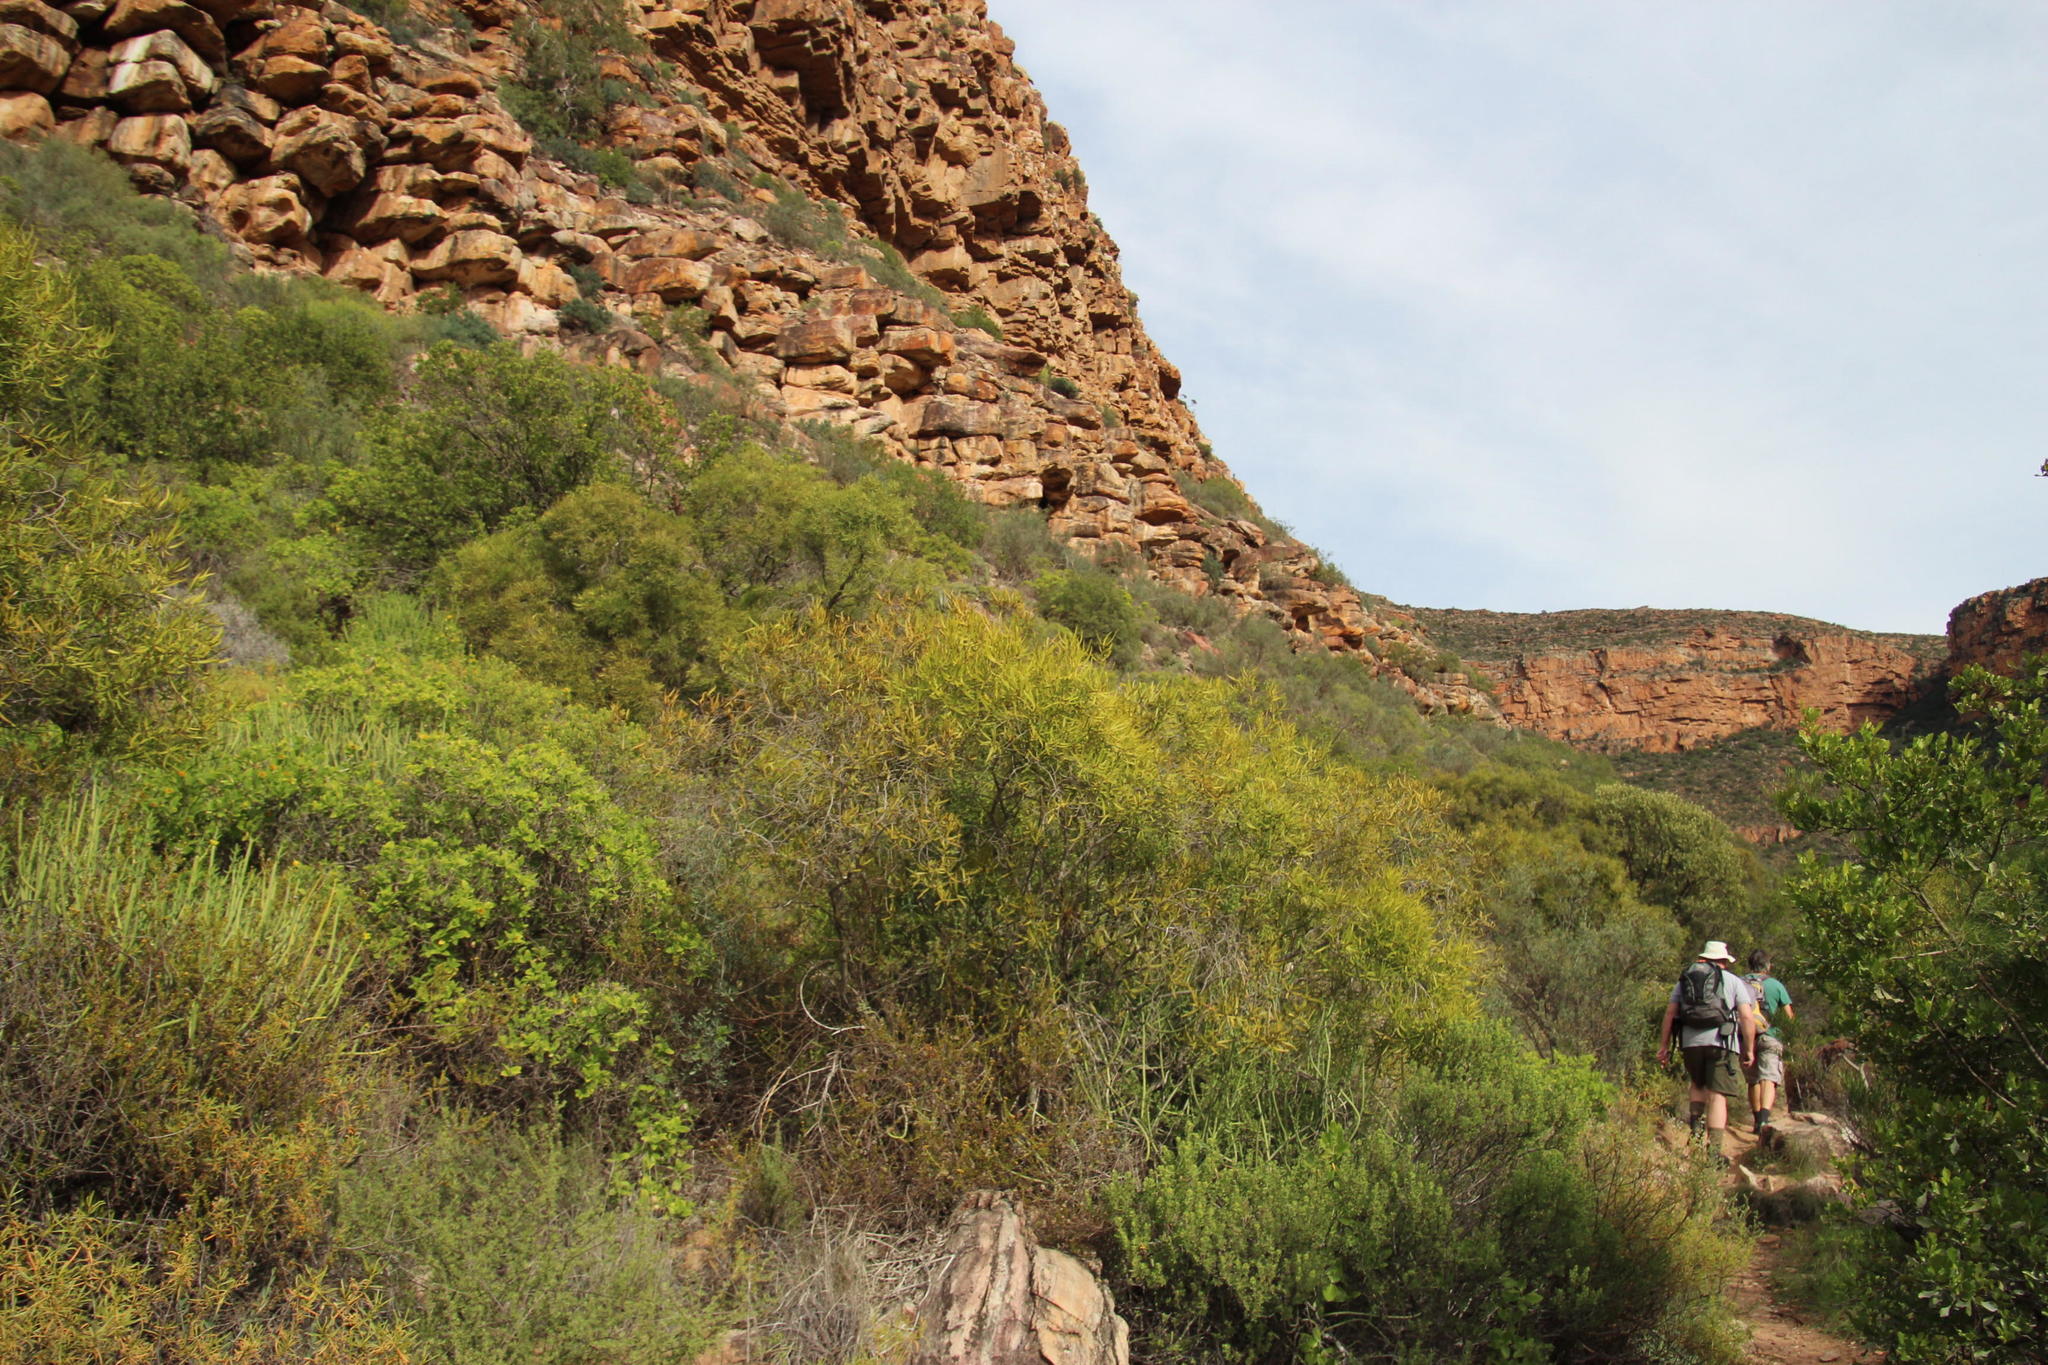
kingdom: Plantae
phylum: Tracheophyta
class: Magnoliopsida
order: Ericales
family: Ebenaceae
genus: Euclea
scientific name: Euclea linearis
